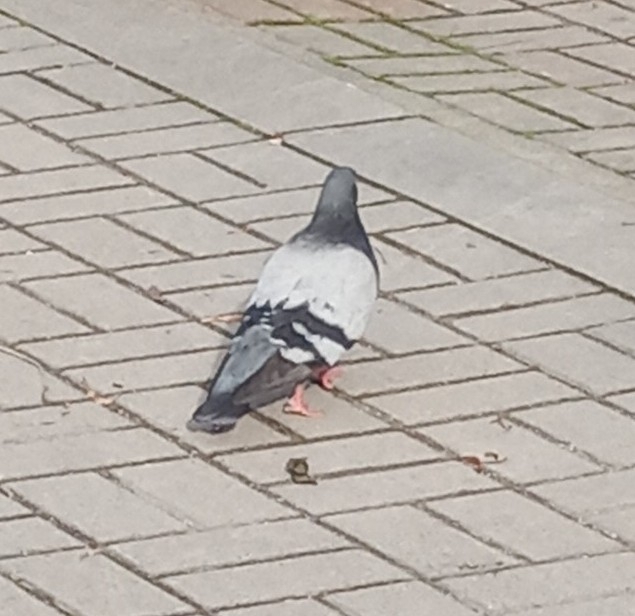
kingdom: Animalia
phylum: Chordata
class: Aves
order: Columbiformes
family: Columbidae
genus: Columba
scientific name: Columba livia
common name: Rock pigeon
